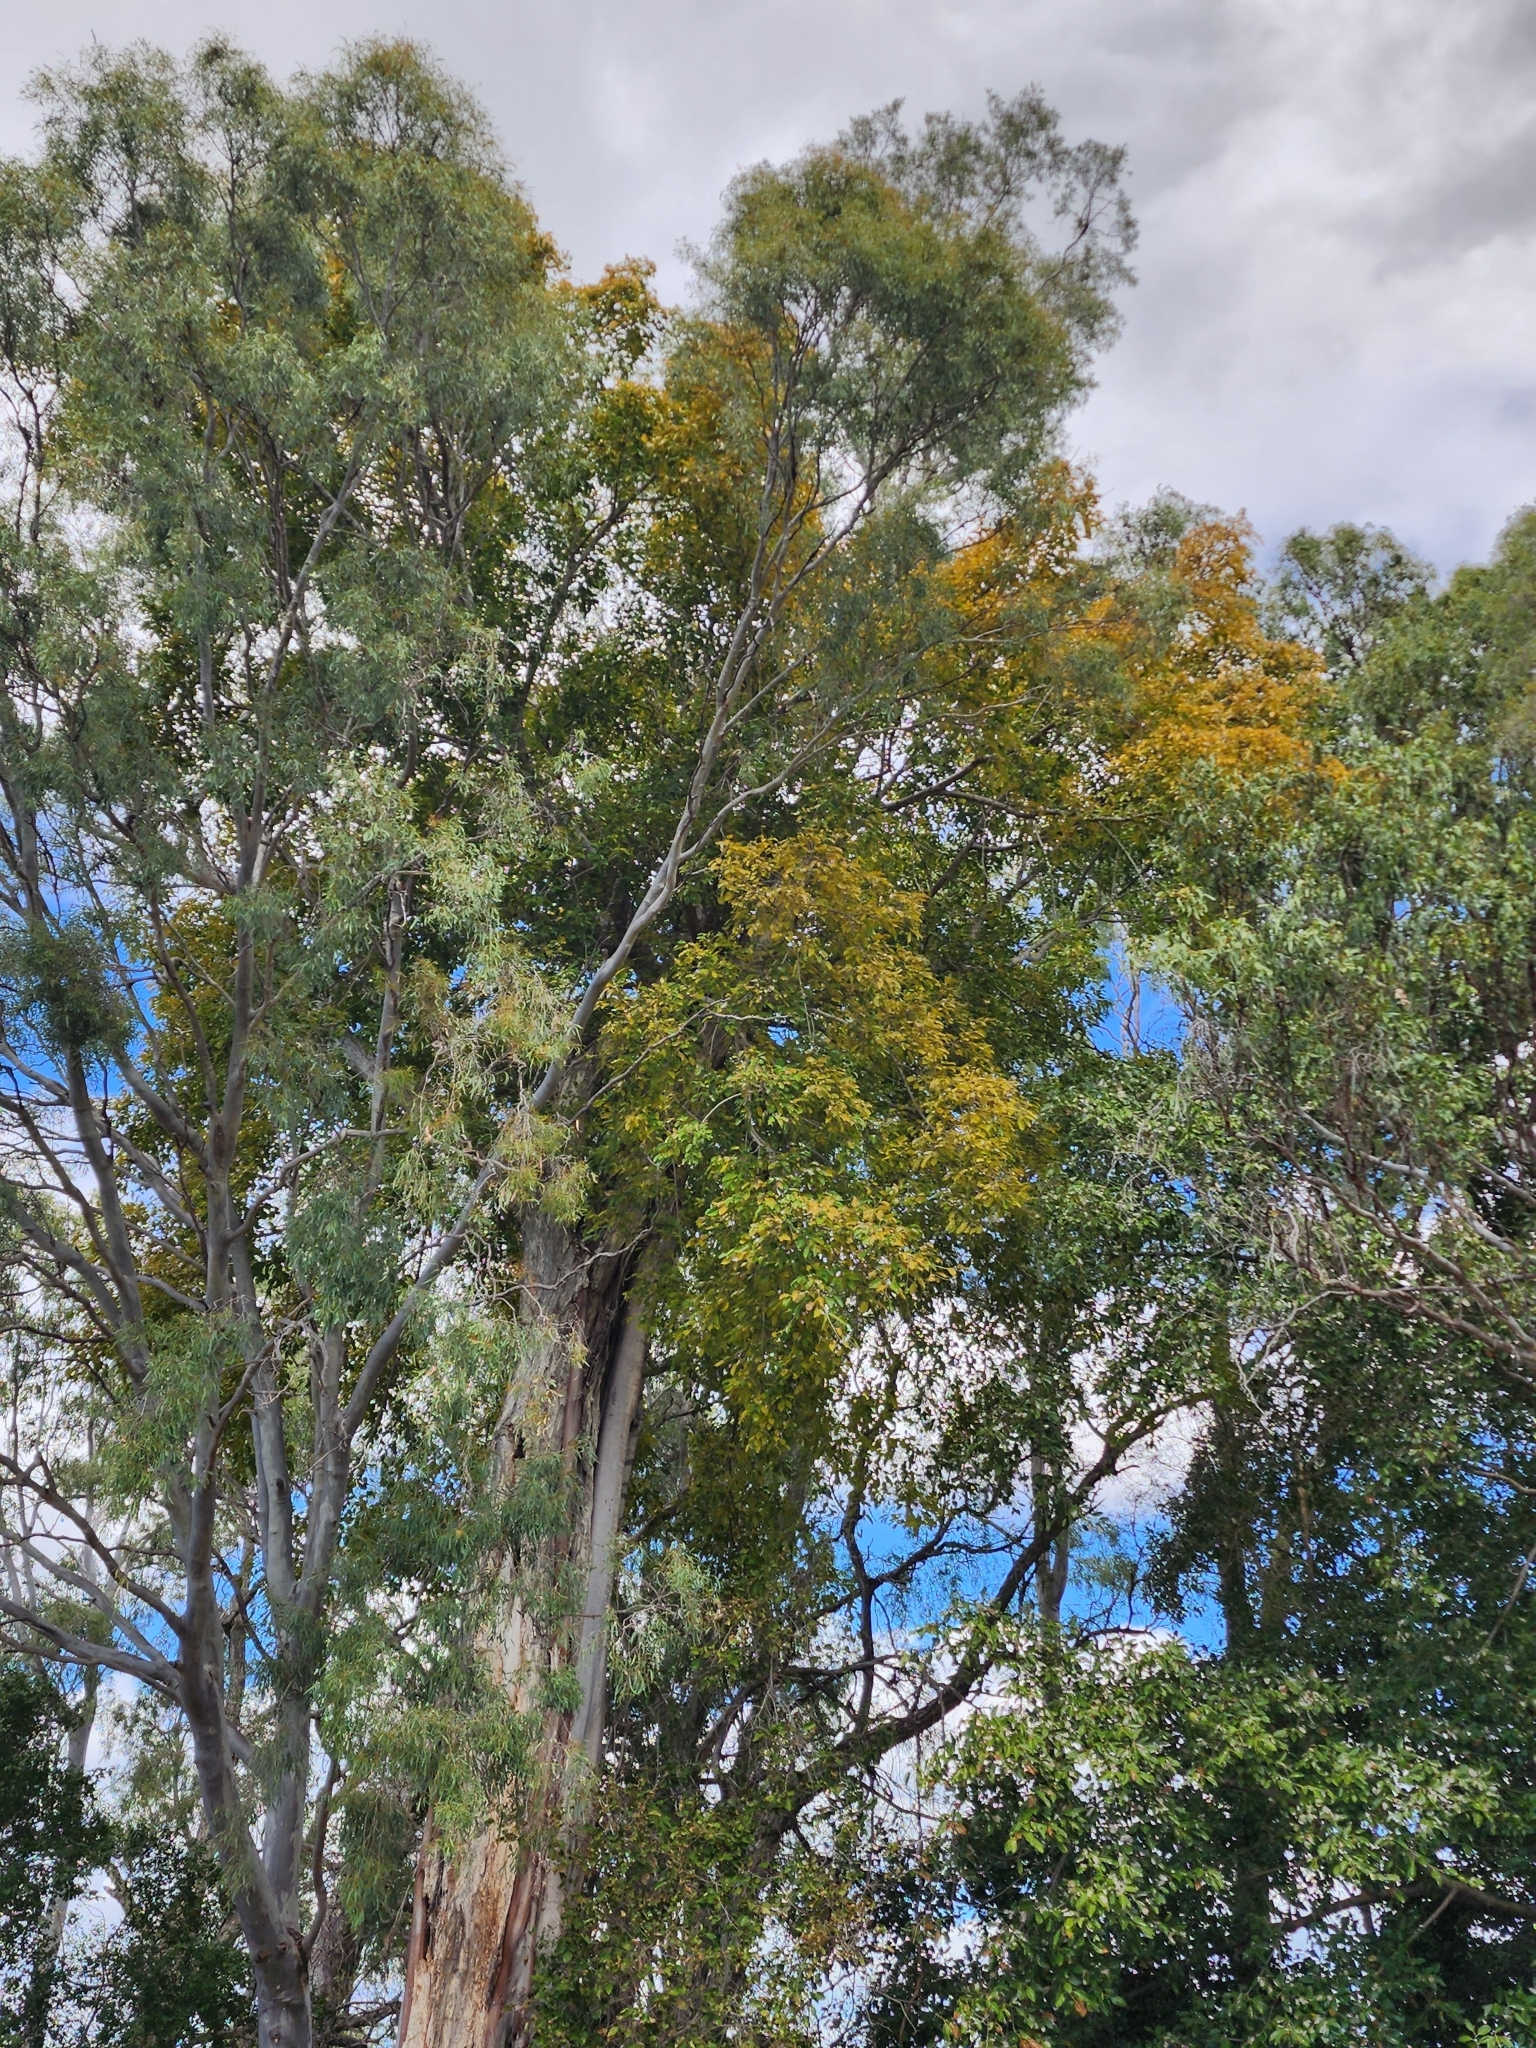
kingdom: Plantae
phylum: Tracheophyta
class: Magnoliopsida
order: Rosales
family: Moraceae
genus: Ficus
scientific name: Ficus virens
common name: Spotted fig
